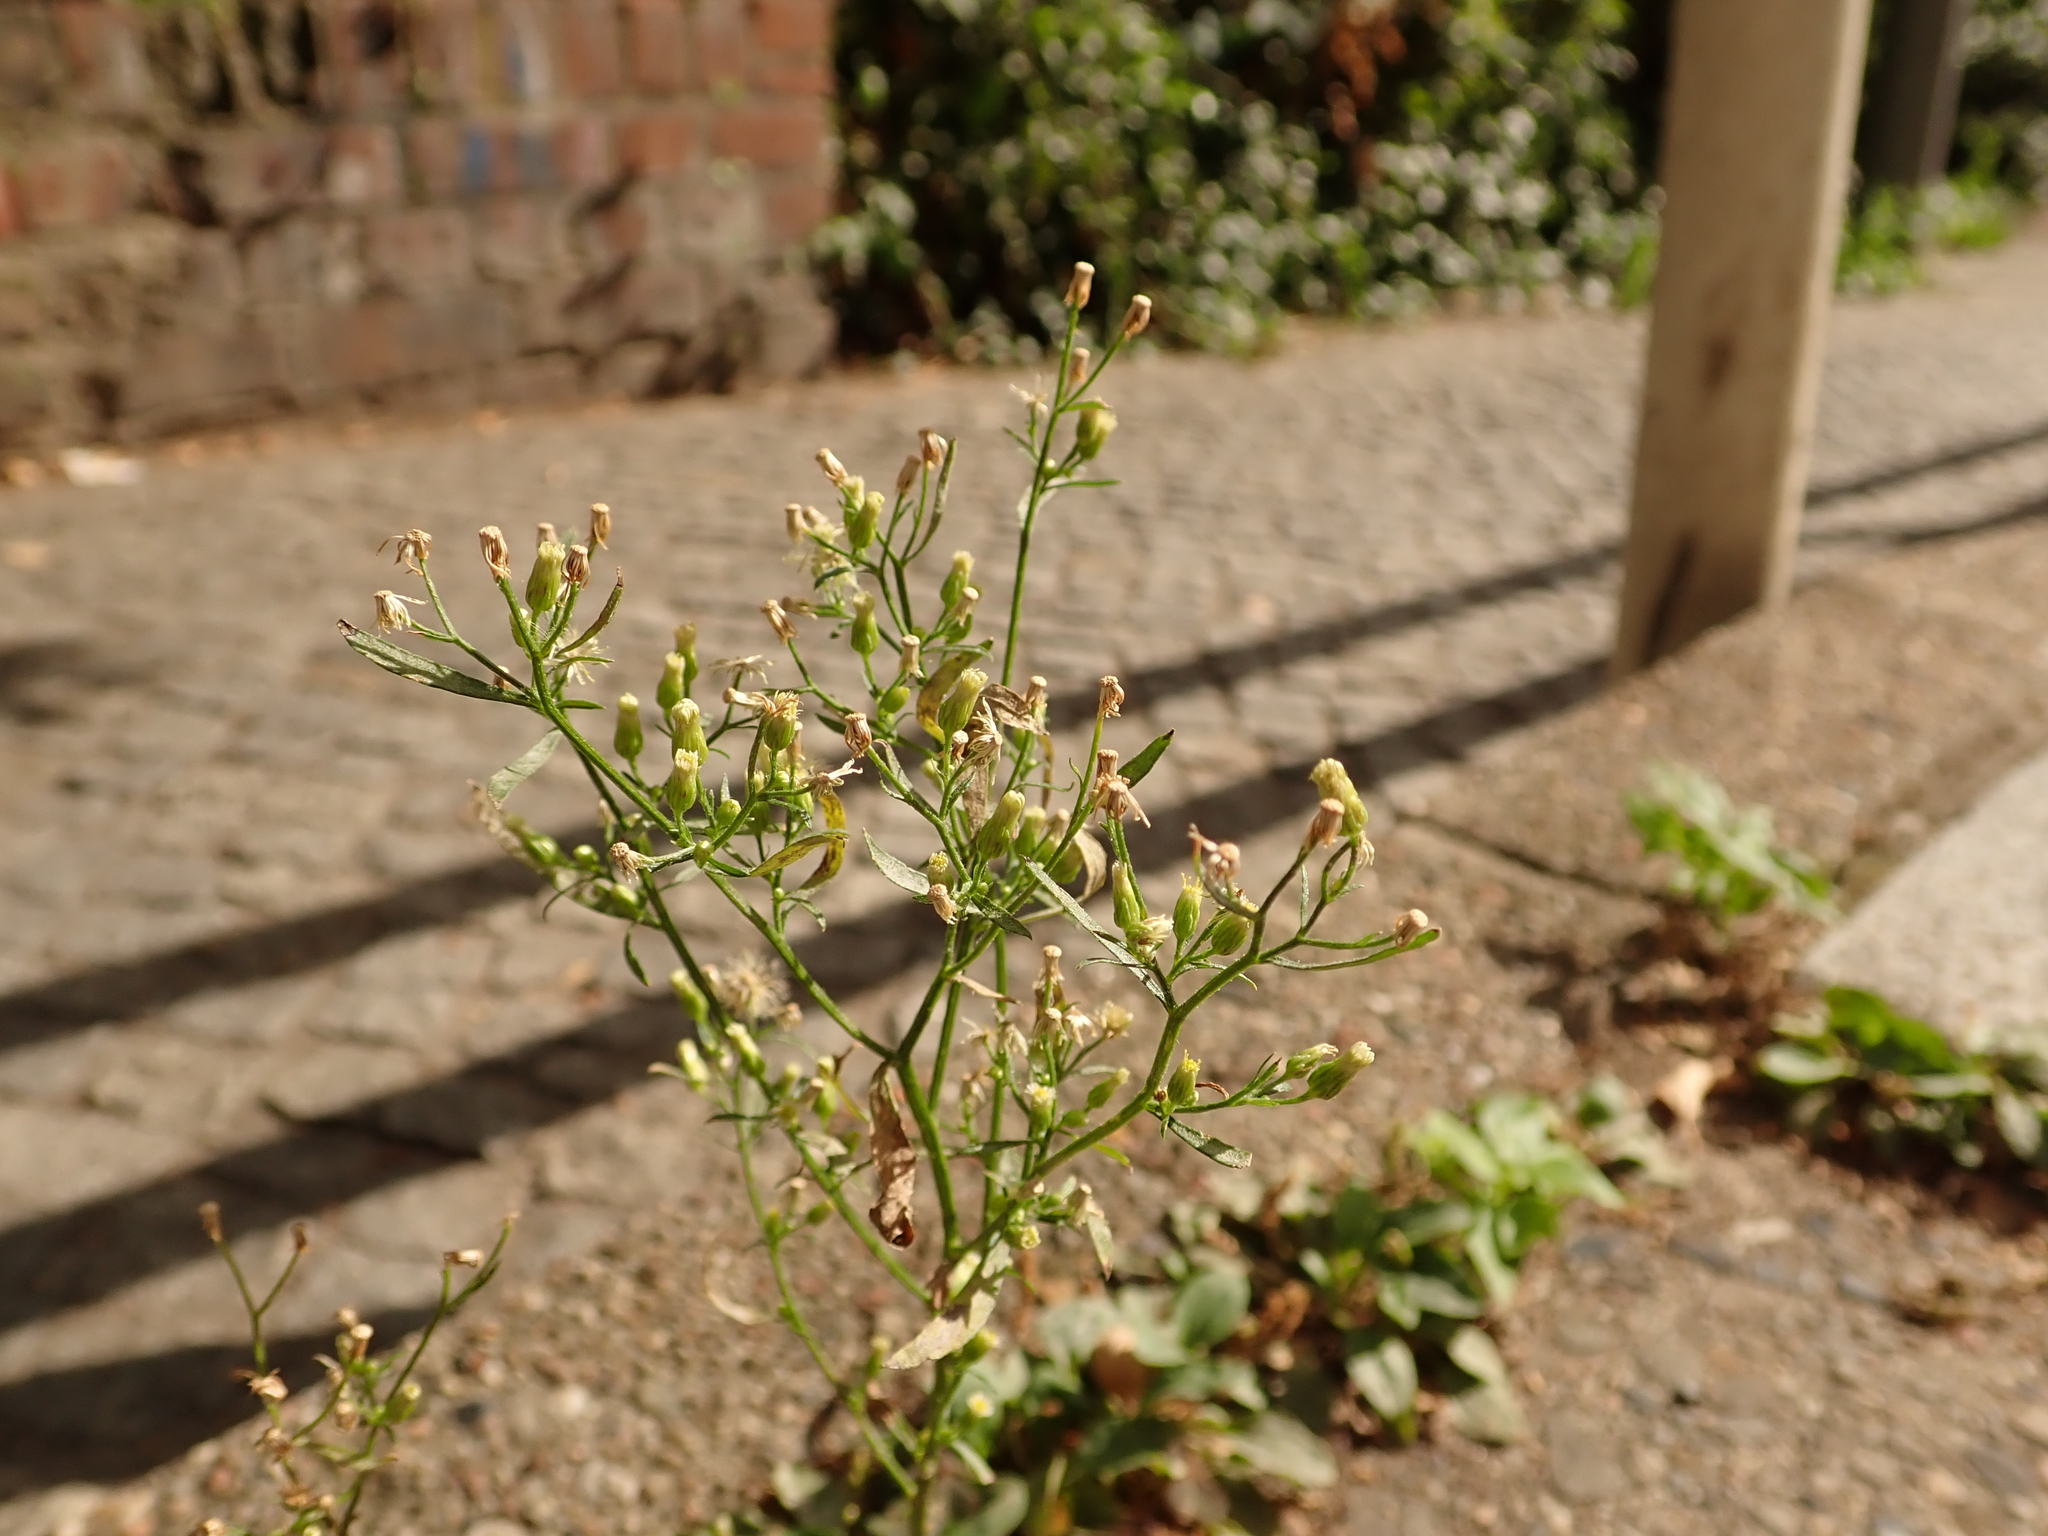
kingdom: Plantae
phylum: Tracheophyta
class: Magnoliopsida
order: Asterales
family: Asteraceae
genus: Erigeron
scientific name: Erigeron canadensis
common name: Canadian fleabane
